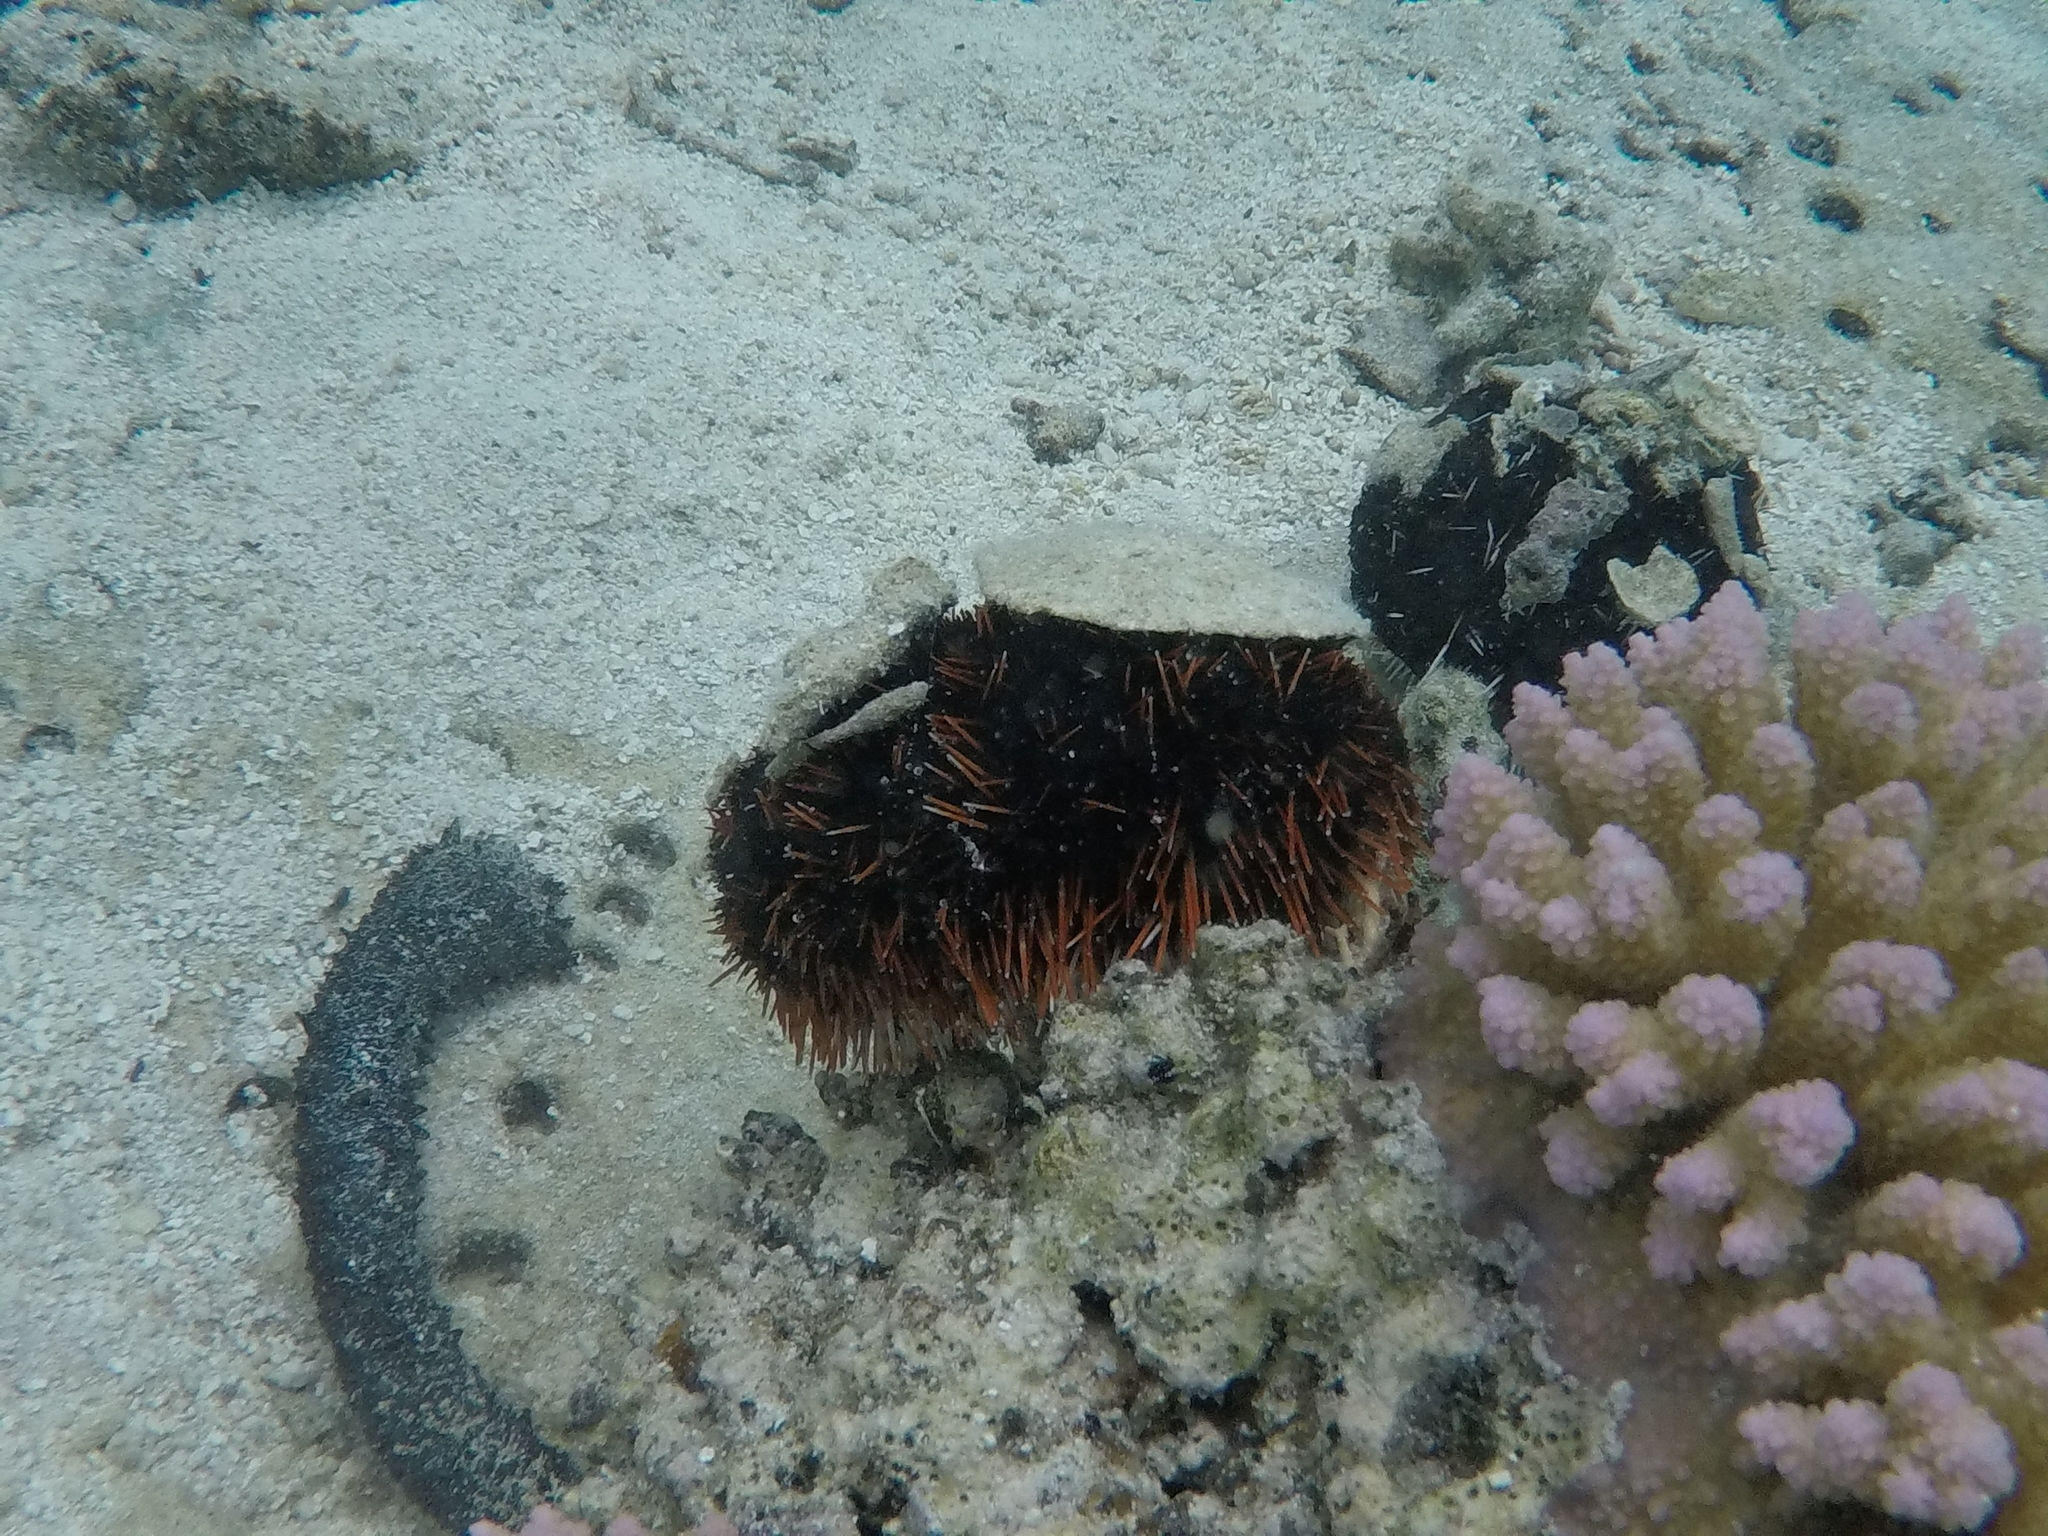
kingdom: Animalia
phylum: Echinodermata
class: Echinoidea
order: Camarodonta
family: Toxopneustidae
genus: Tripneustes
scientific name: Tripneustes gratilla
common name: Bischofsmützenseeigel
